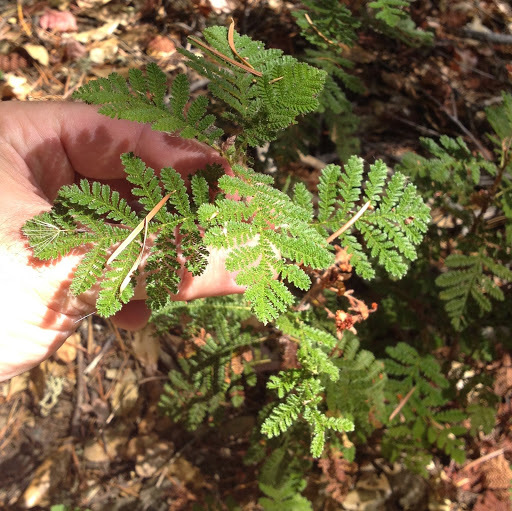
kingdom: Plantae
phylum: Tracheophyta
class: Magnoliopsida
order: Rosales
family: Rosaceae
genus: Chamaebatia
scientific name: Chamaebatia foliolosa
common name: Mountain misery
